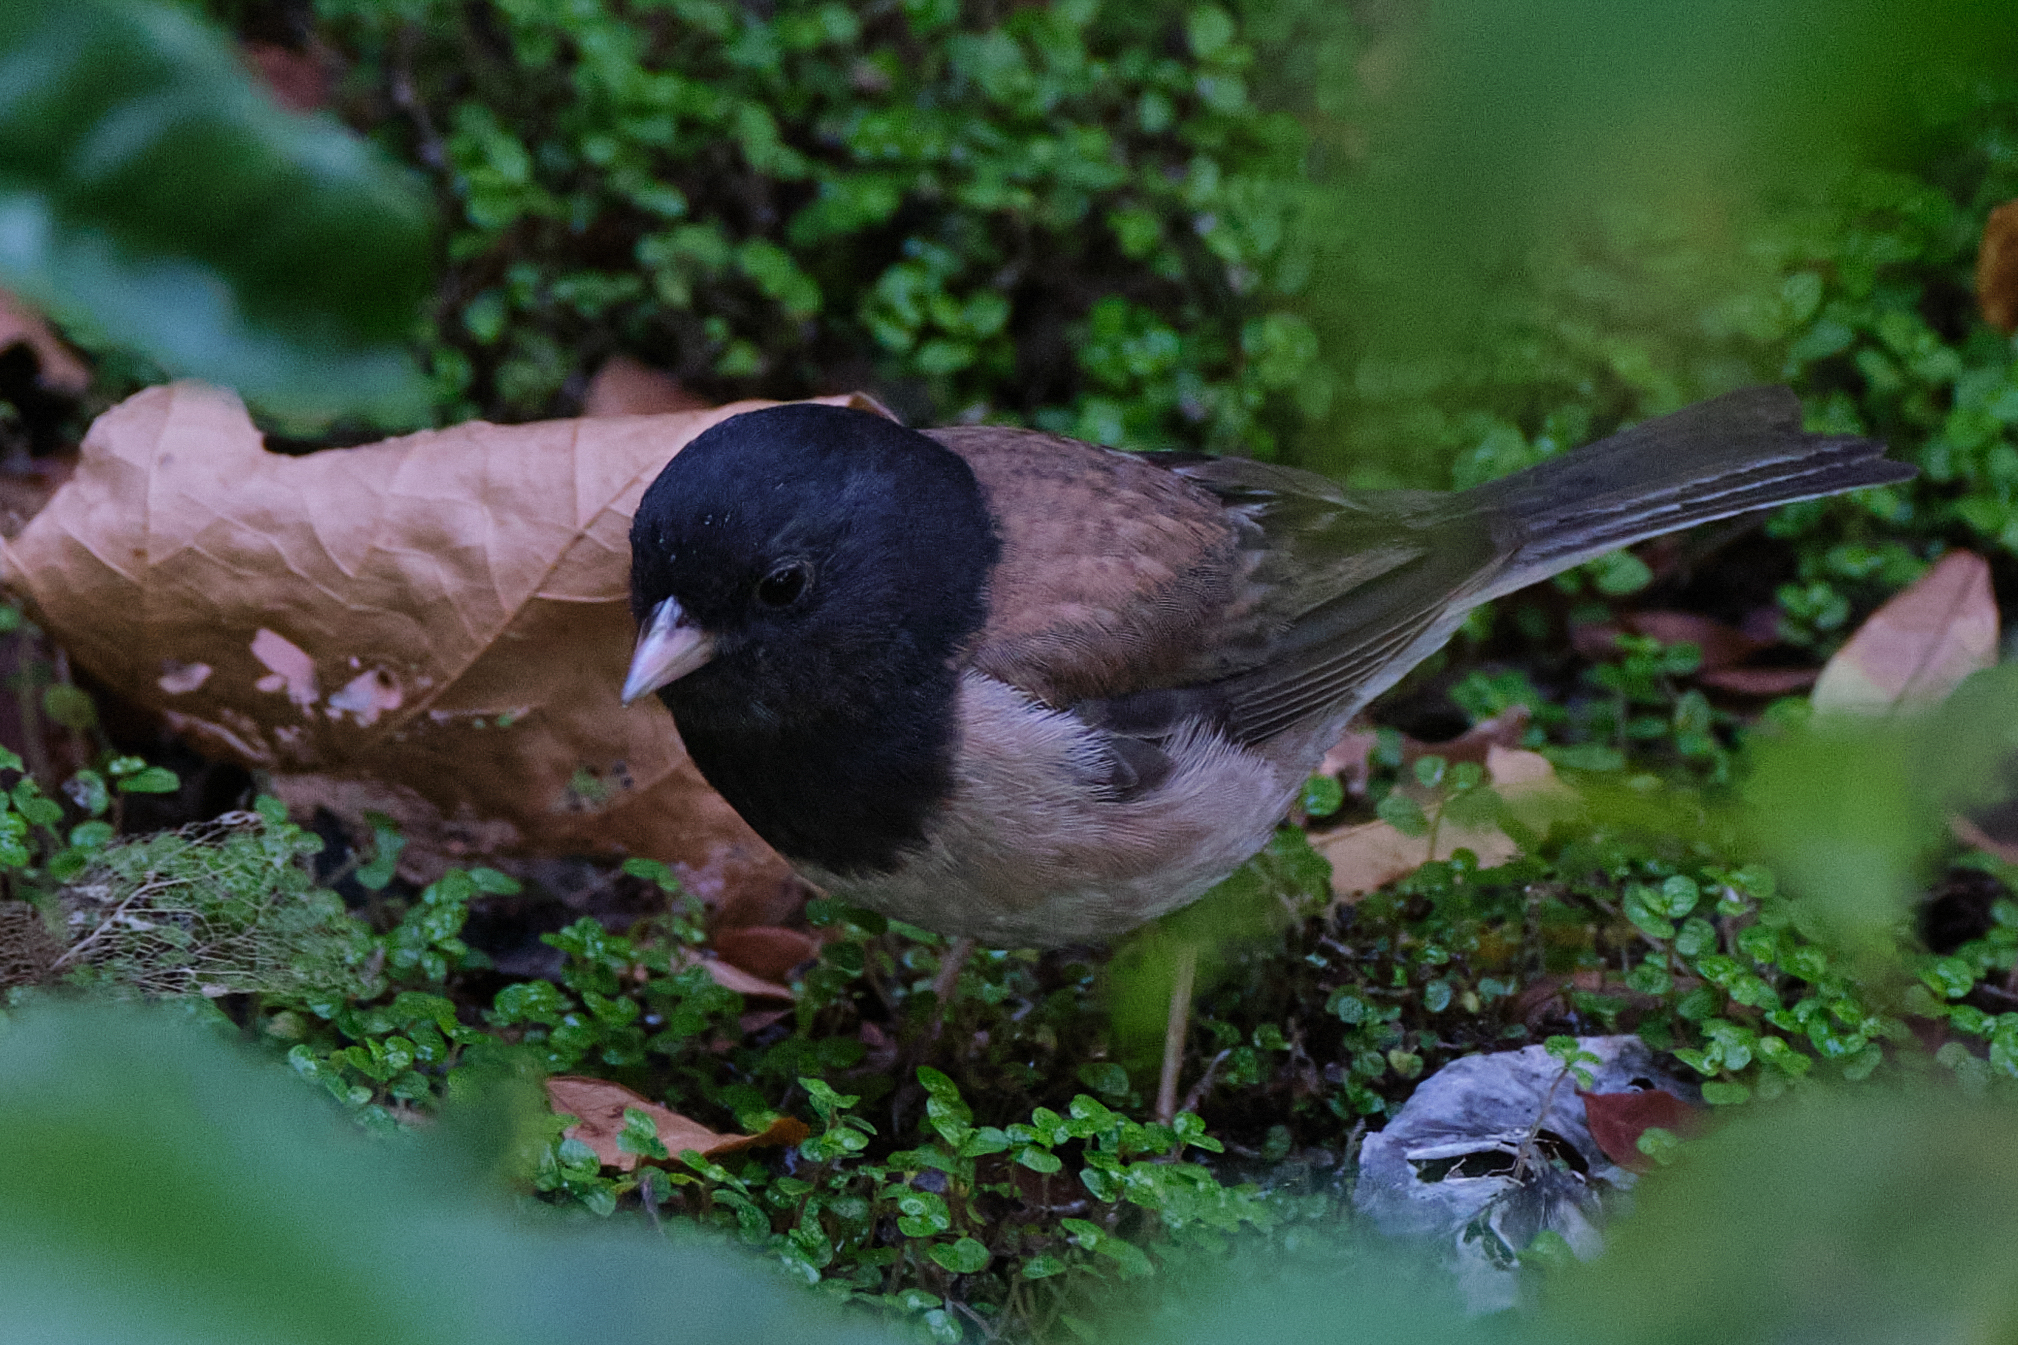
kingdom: Animalia
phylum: Chordata
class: Aves
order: Passeriformes
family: Passerellidae
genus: Junco
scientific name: Junco hyemalis
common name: Dark-eyed junco
